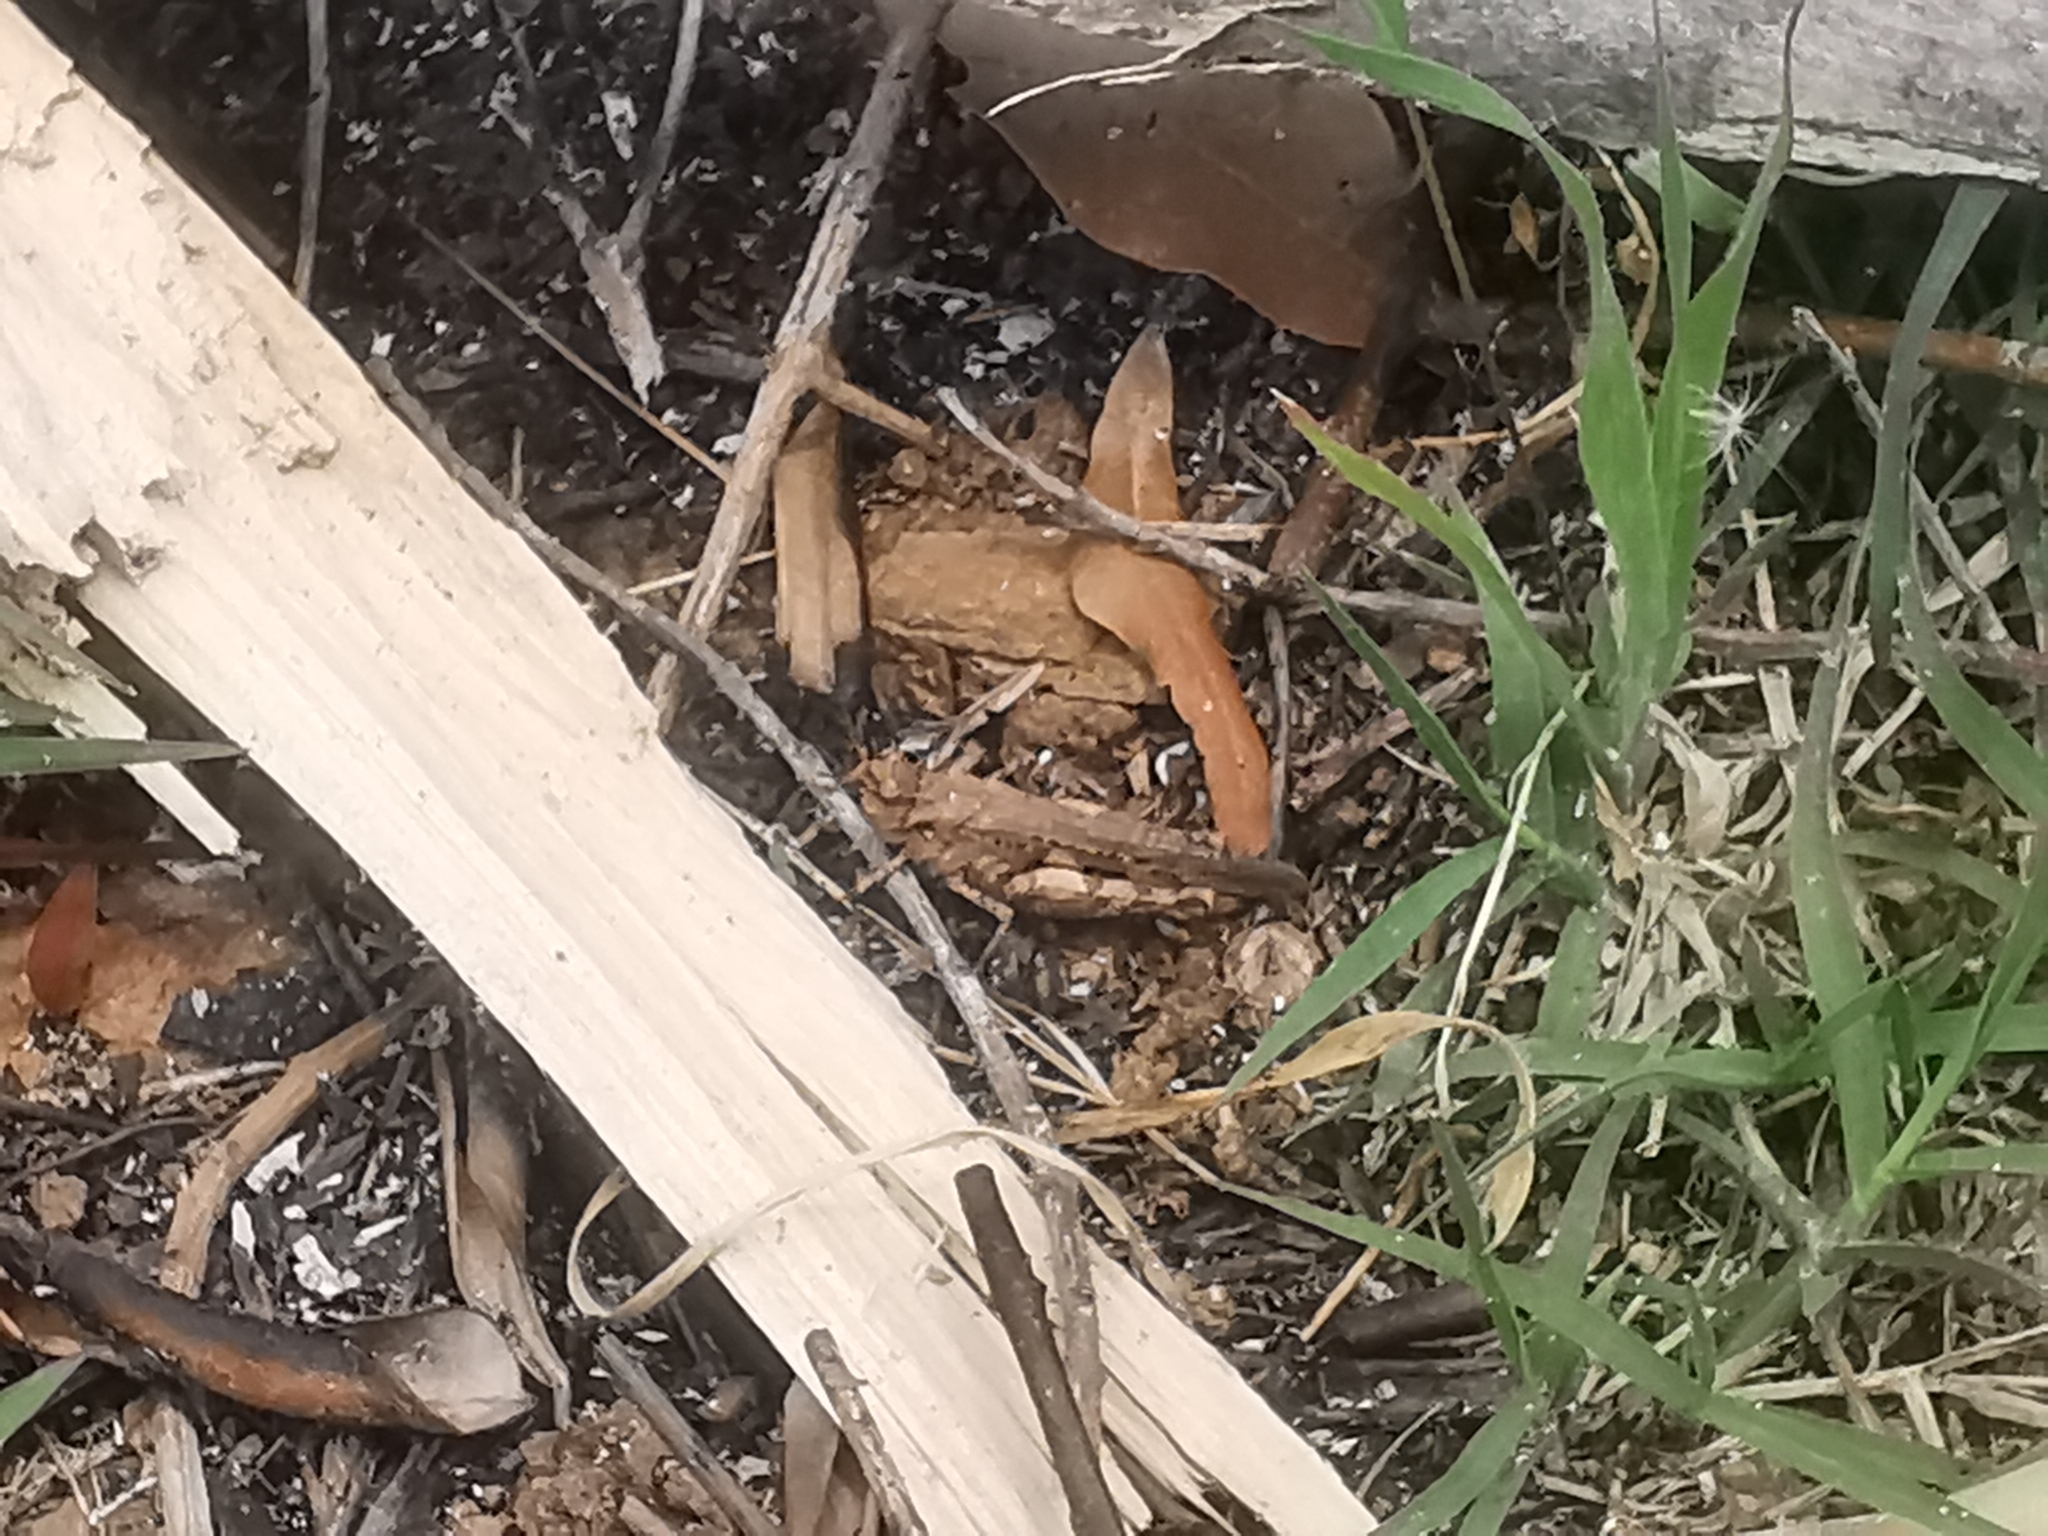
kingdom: Animalia
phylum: Arthropoda
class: Insecta
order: Orthoptera
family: Acrididae
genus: Acrotylus
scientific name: Acrotylus insubricus
